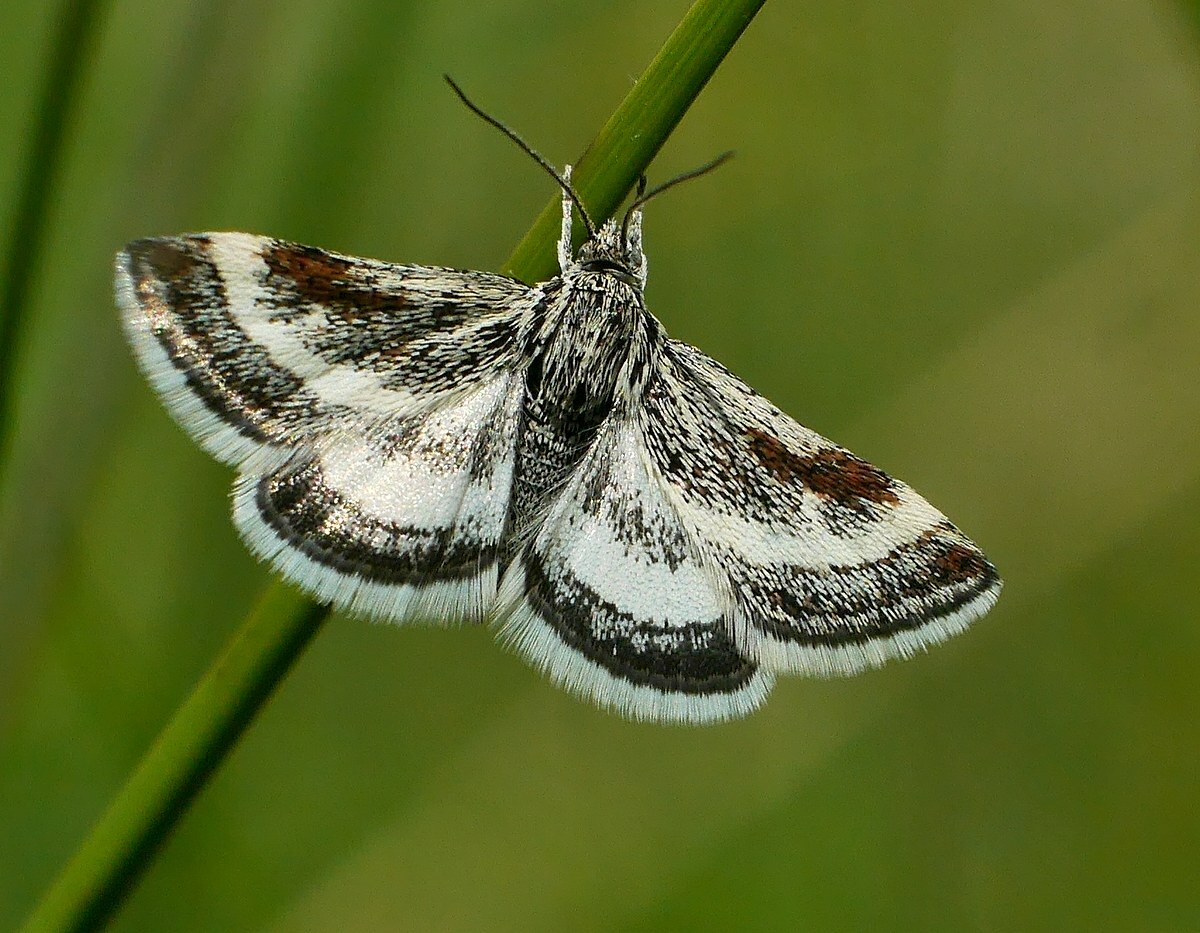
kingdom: Animalia
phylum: Arthropoda
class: Insecta
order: Lepidoptera
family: Crambidae
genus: Atralata
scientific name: Atralata albofascialis
